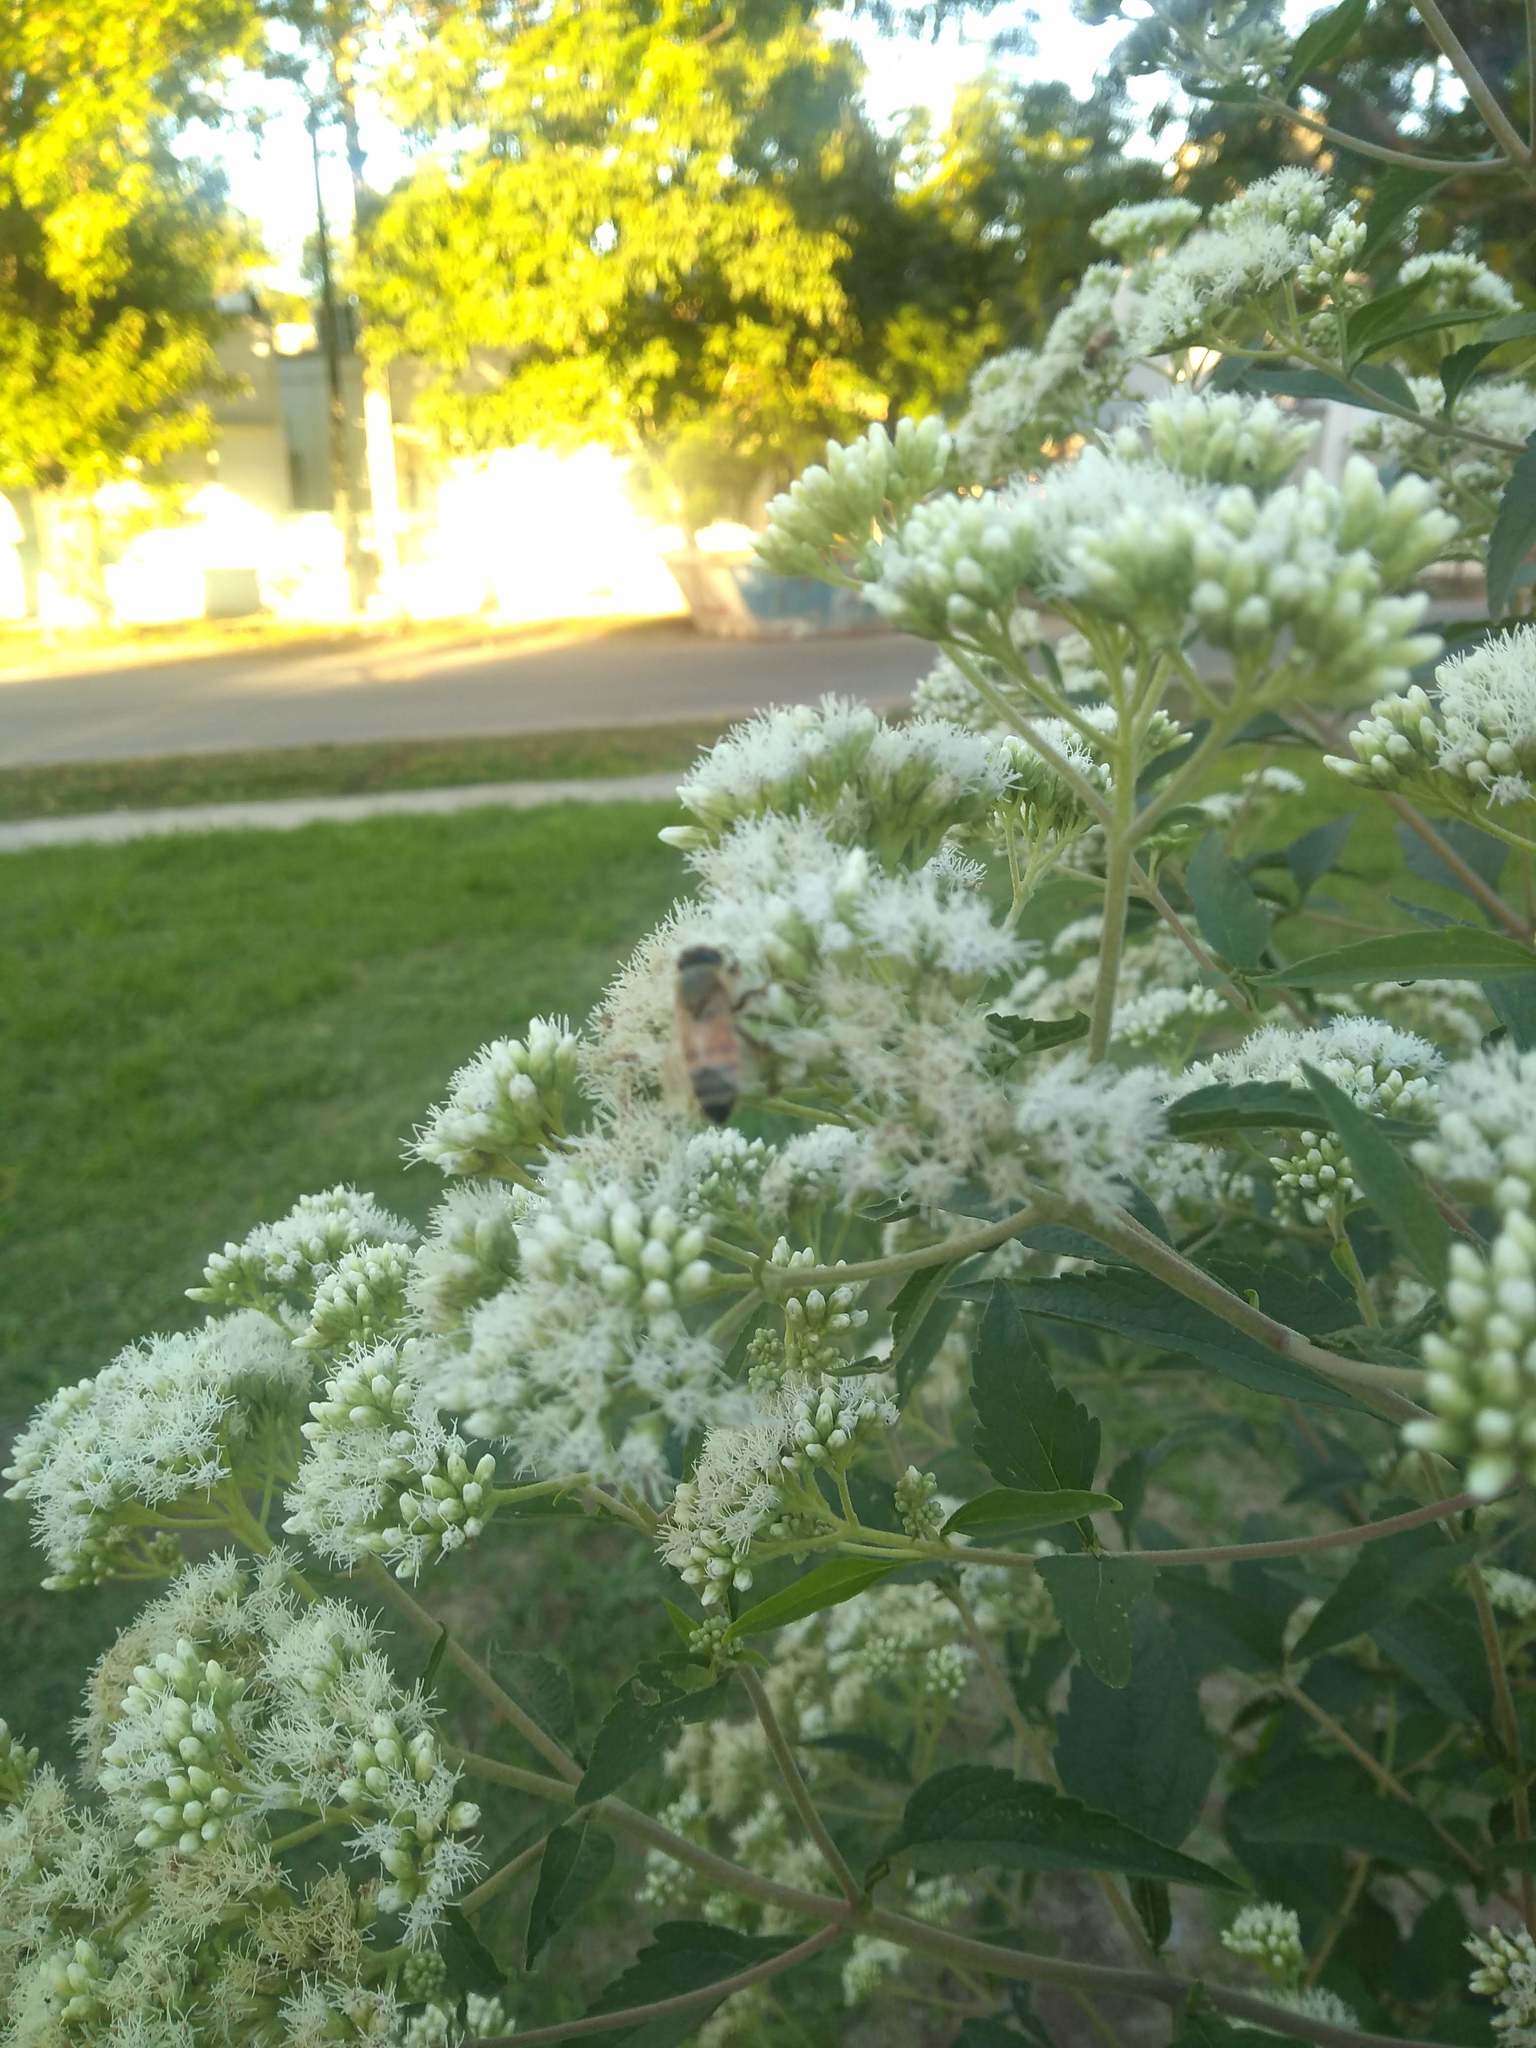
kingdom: Animalia
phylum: Arthropoda
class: Insecta
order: Hymenoptera
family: Apidae
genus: Apis
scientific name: Apis mellifera
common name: Honey bee
